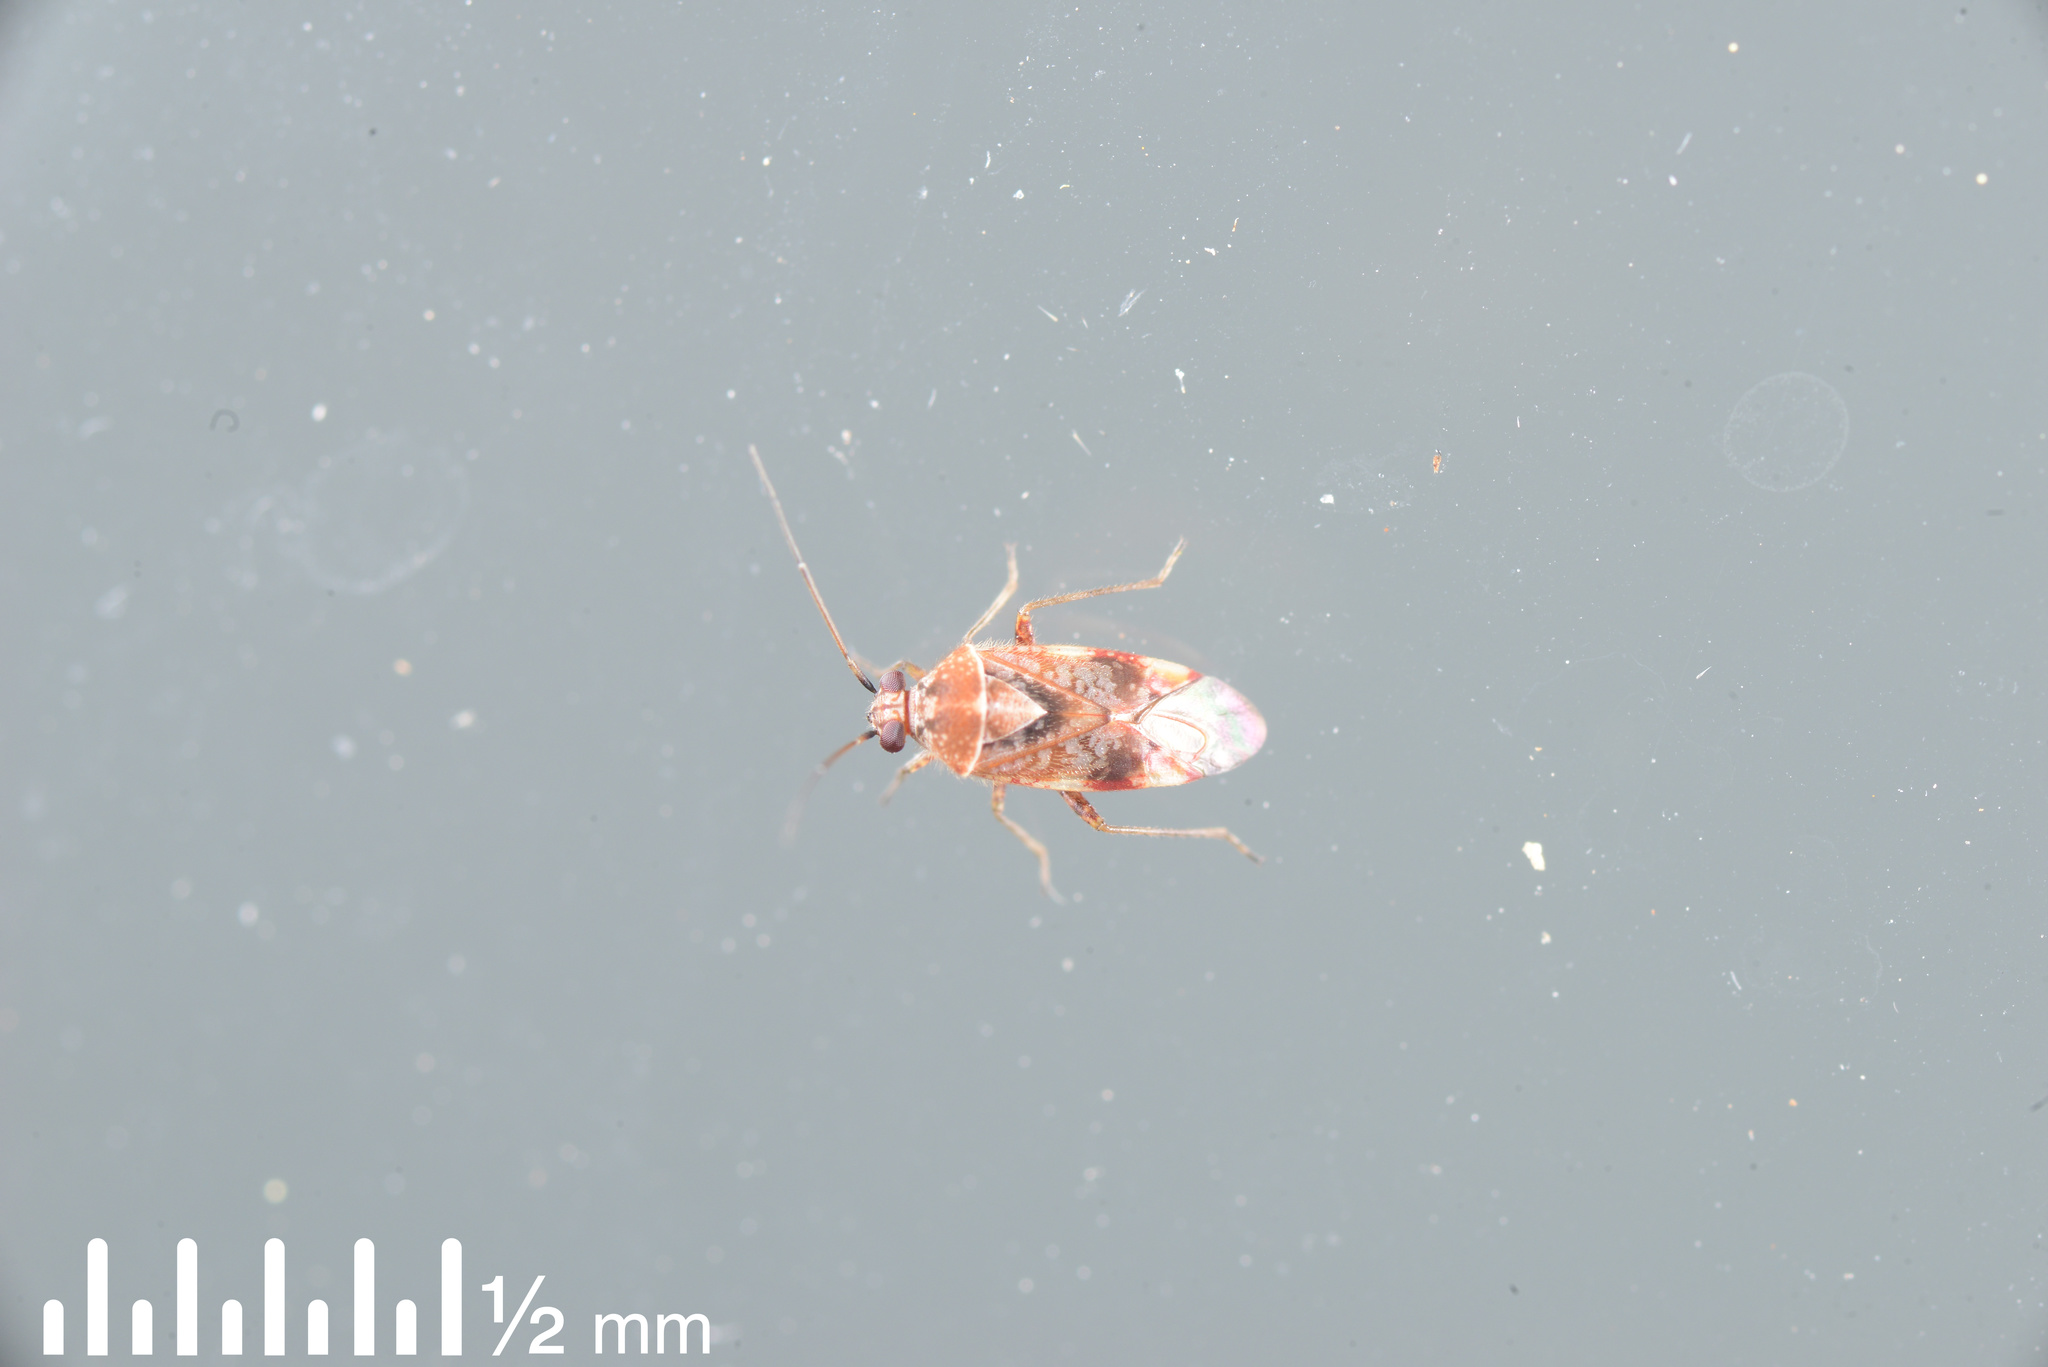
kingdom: Animalia
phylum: Arthropoda
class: Insecta
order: Hemiptera
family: Miridae
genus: Tinginotum
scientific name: Tinginotum minutum
